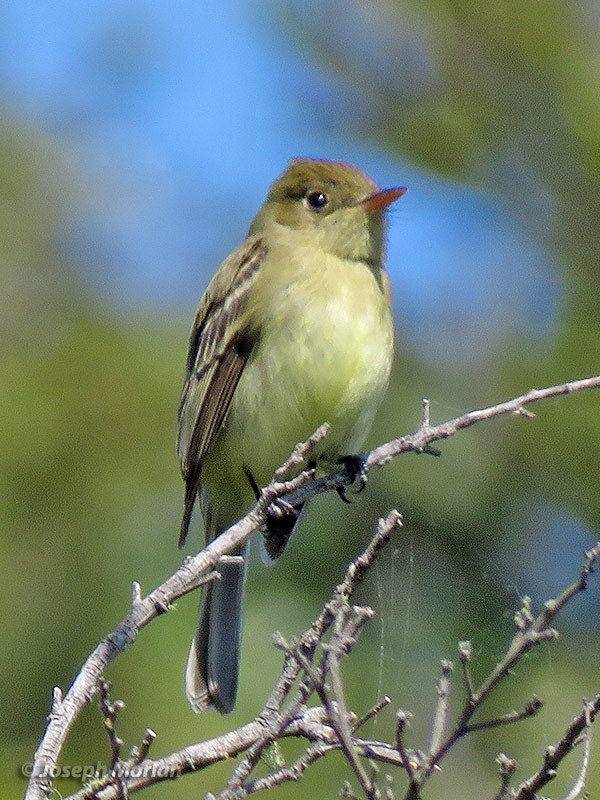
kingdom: Animalia
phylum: Chordata
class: Aves
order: Passeriformes
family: Tyrannidae
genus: Empidonax
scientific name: Empidonax difficilis
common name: Pacific-slope flycatcher
